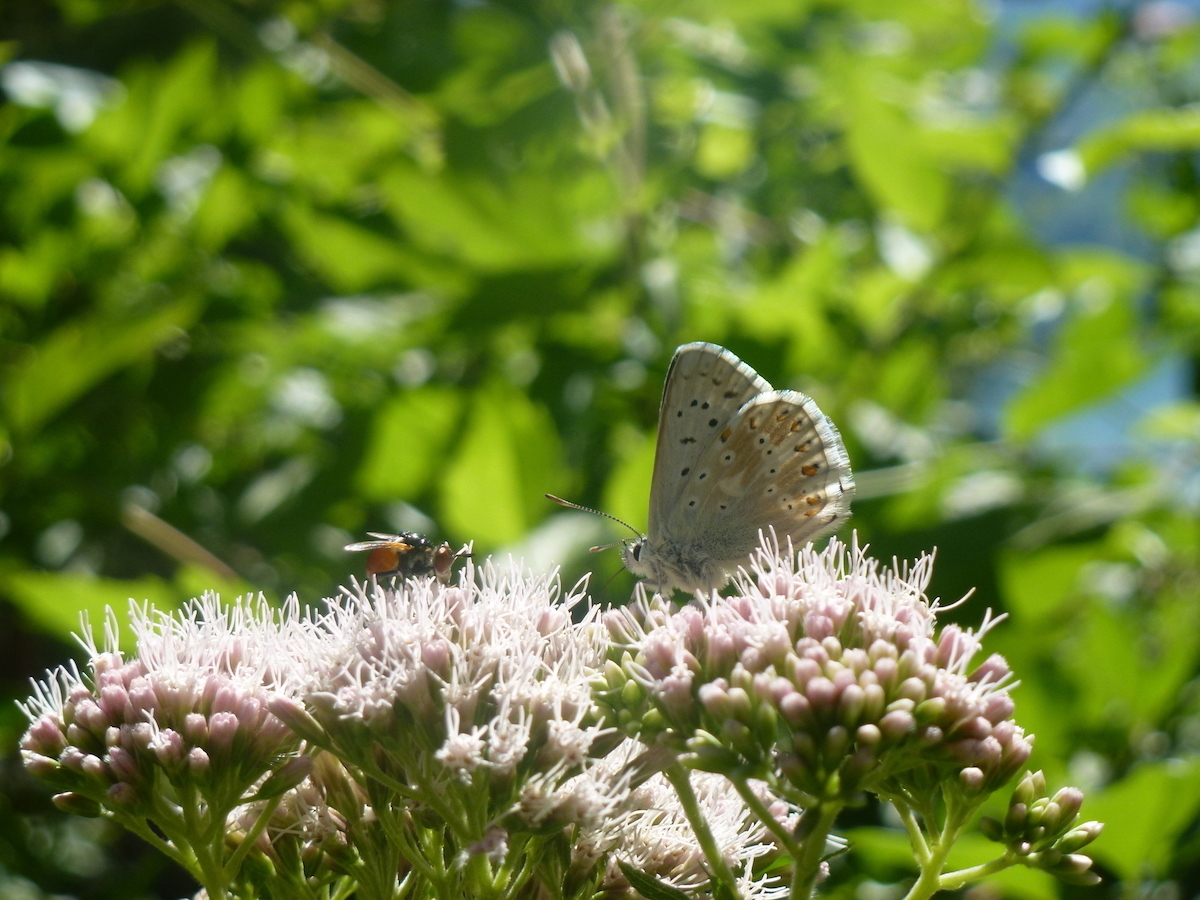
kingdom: Animalia
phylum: Arthropoda
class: Insecta
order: Lepidoptera
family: Lycaenidae
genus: Lysandra
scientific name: Lysandra coridon
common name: Chalkhill blue
